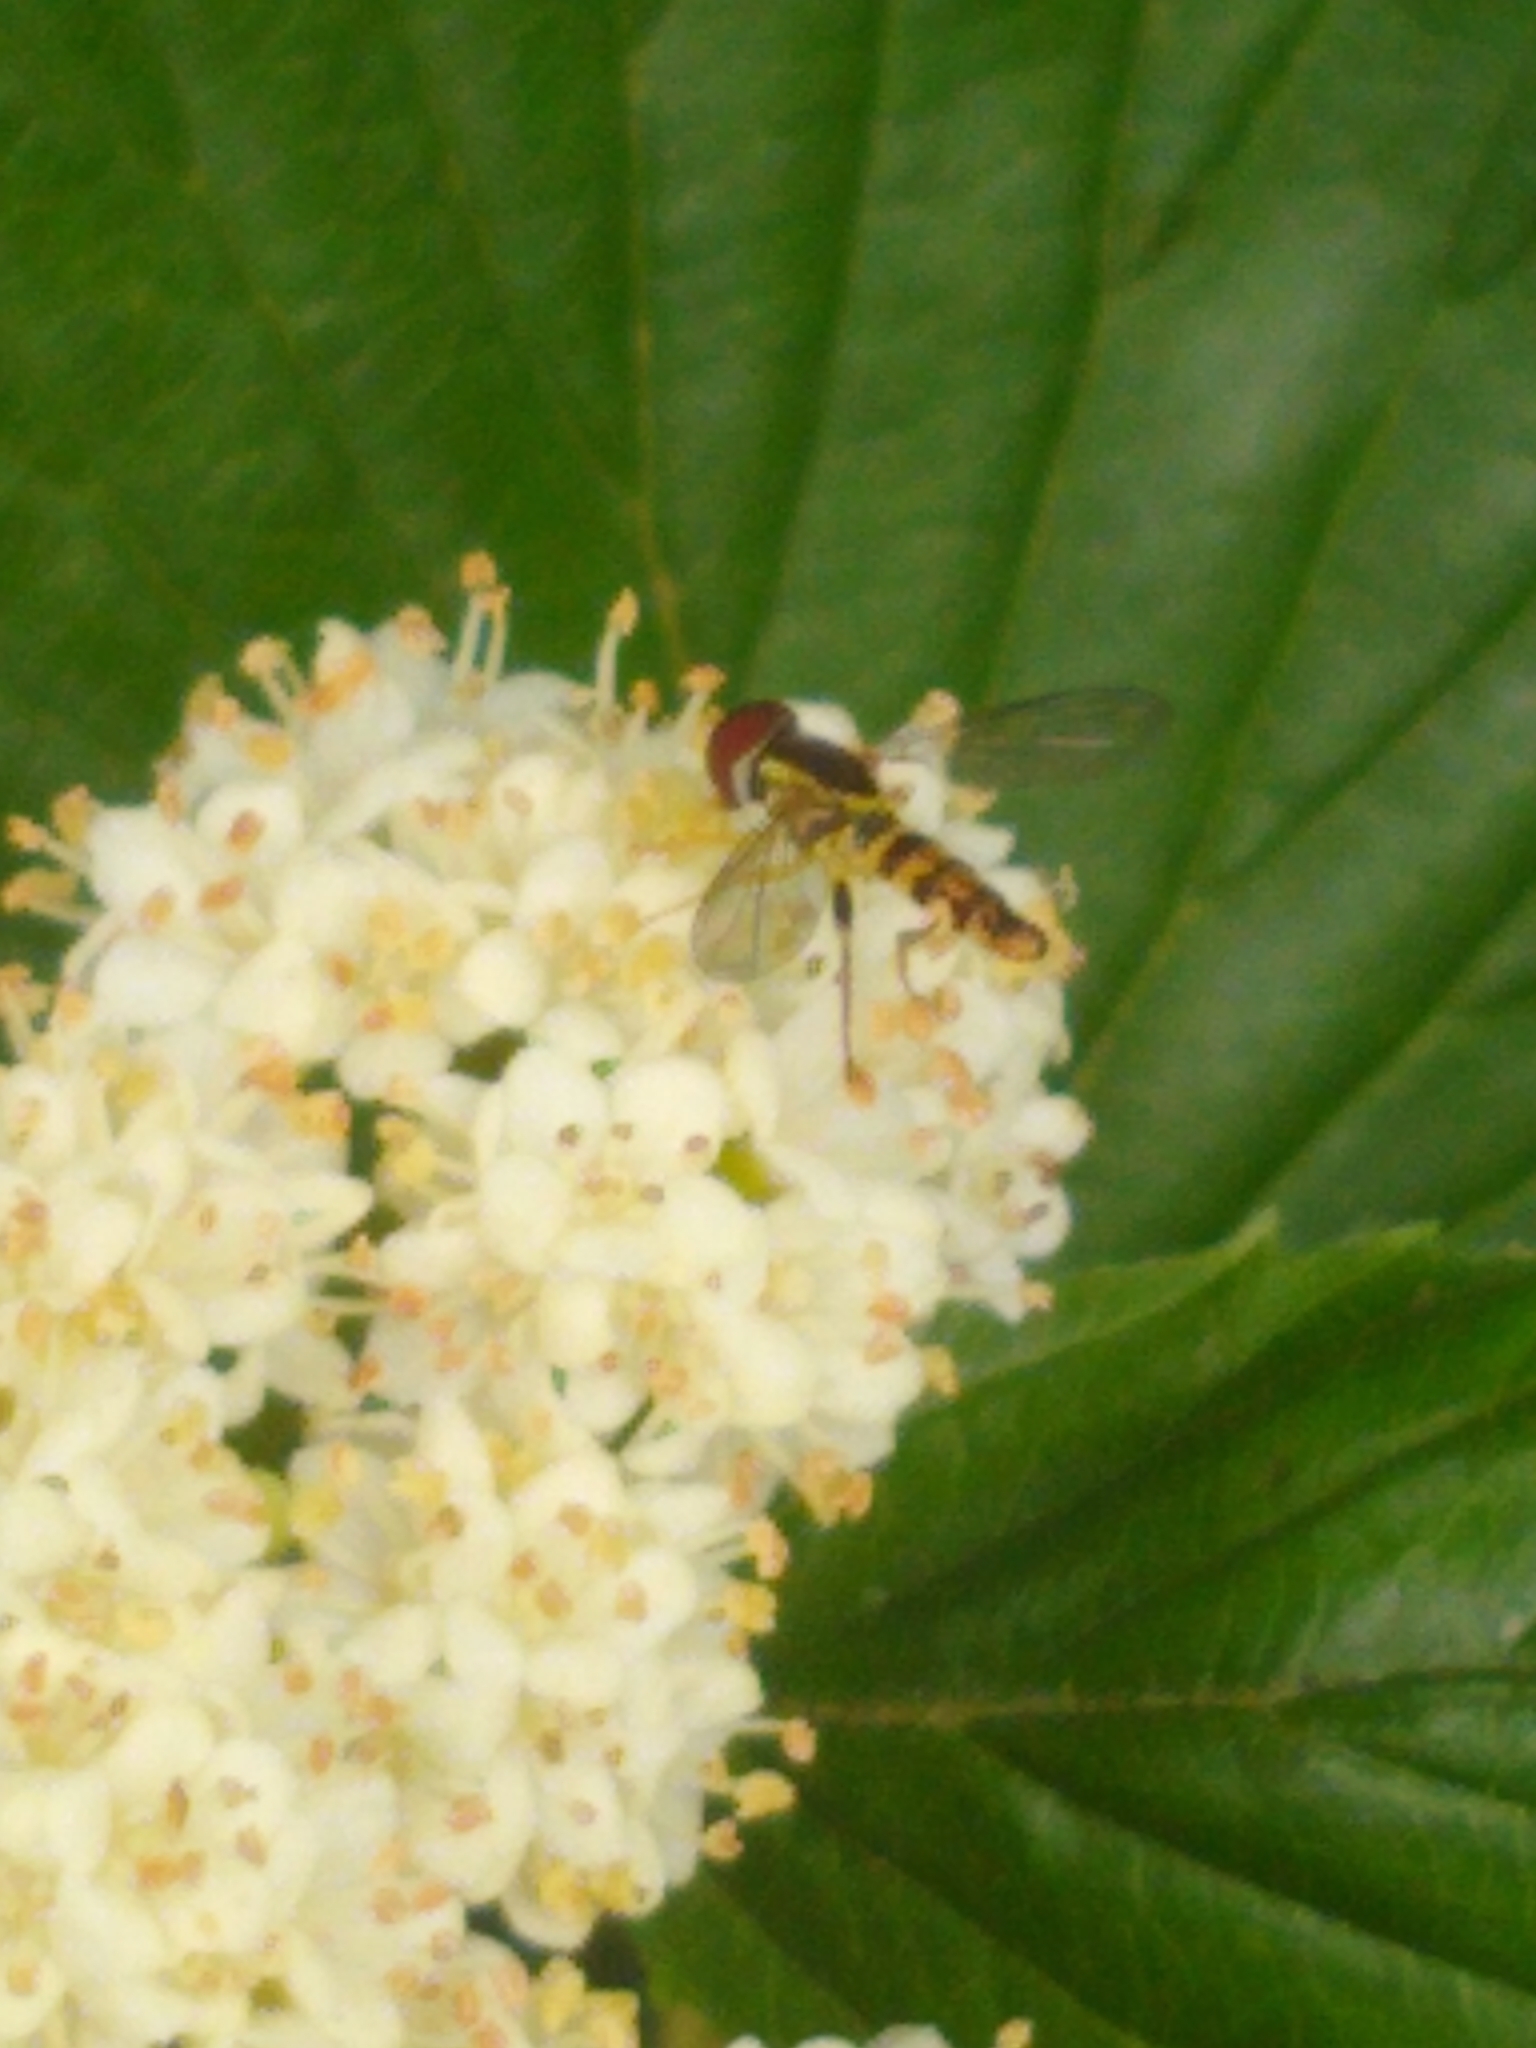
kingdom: Animalia
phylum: Arthropoda
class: Insecta
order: Diptera
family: Syrphidae
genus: Toxomerus
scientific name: Toxomerus geminatus
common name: Eastern calligrapher
